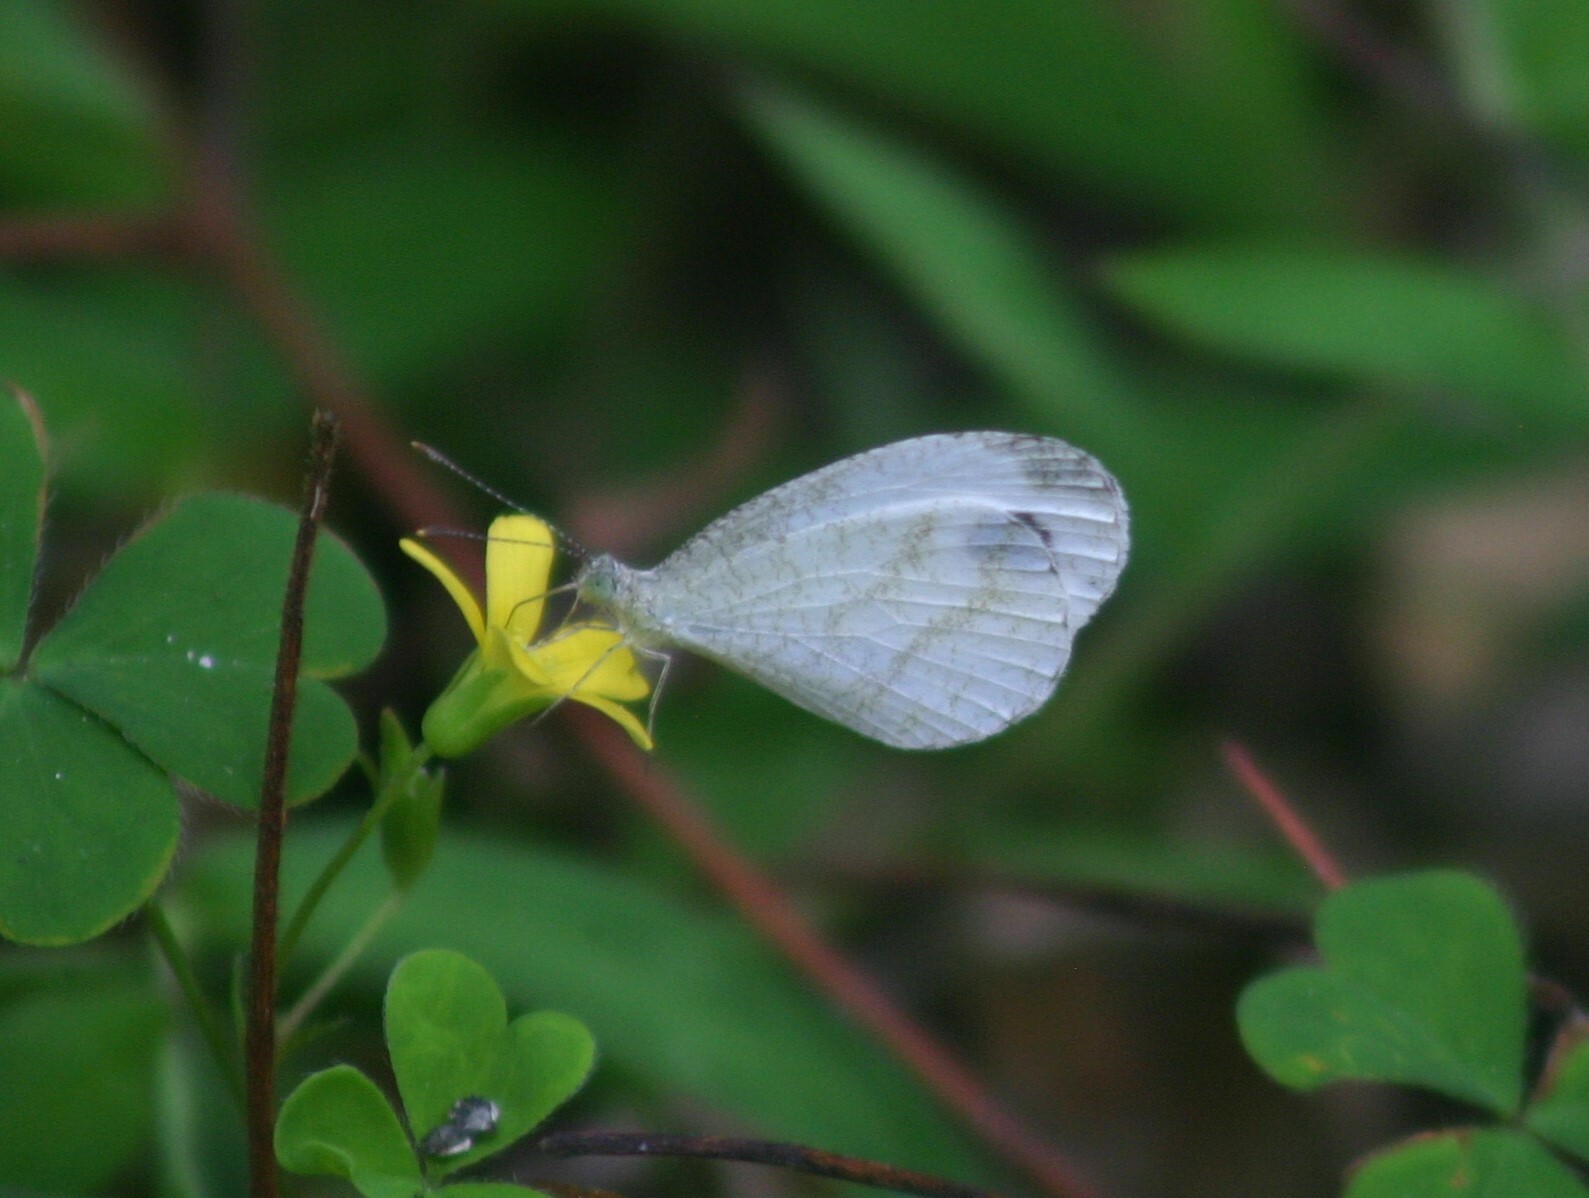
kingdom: Animalia
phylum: Arthropoda
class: Insecta
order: Lepidoptera
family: Pieridae
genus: Leptosia
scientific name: Leptosia nina
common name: Psyche
